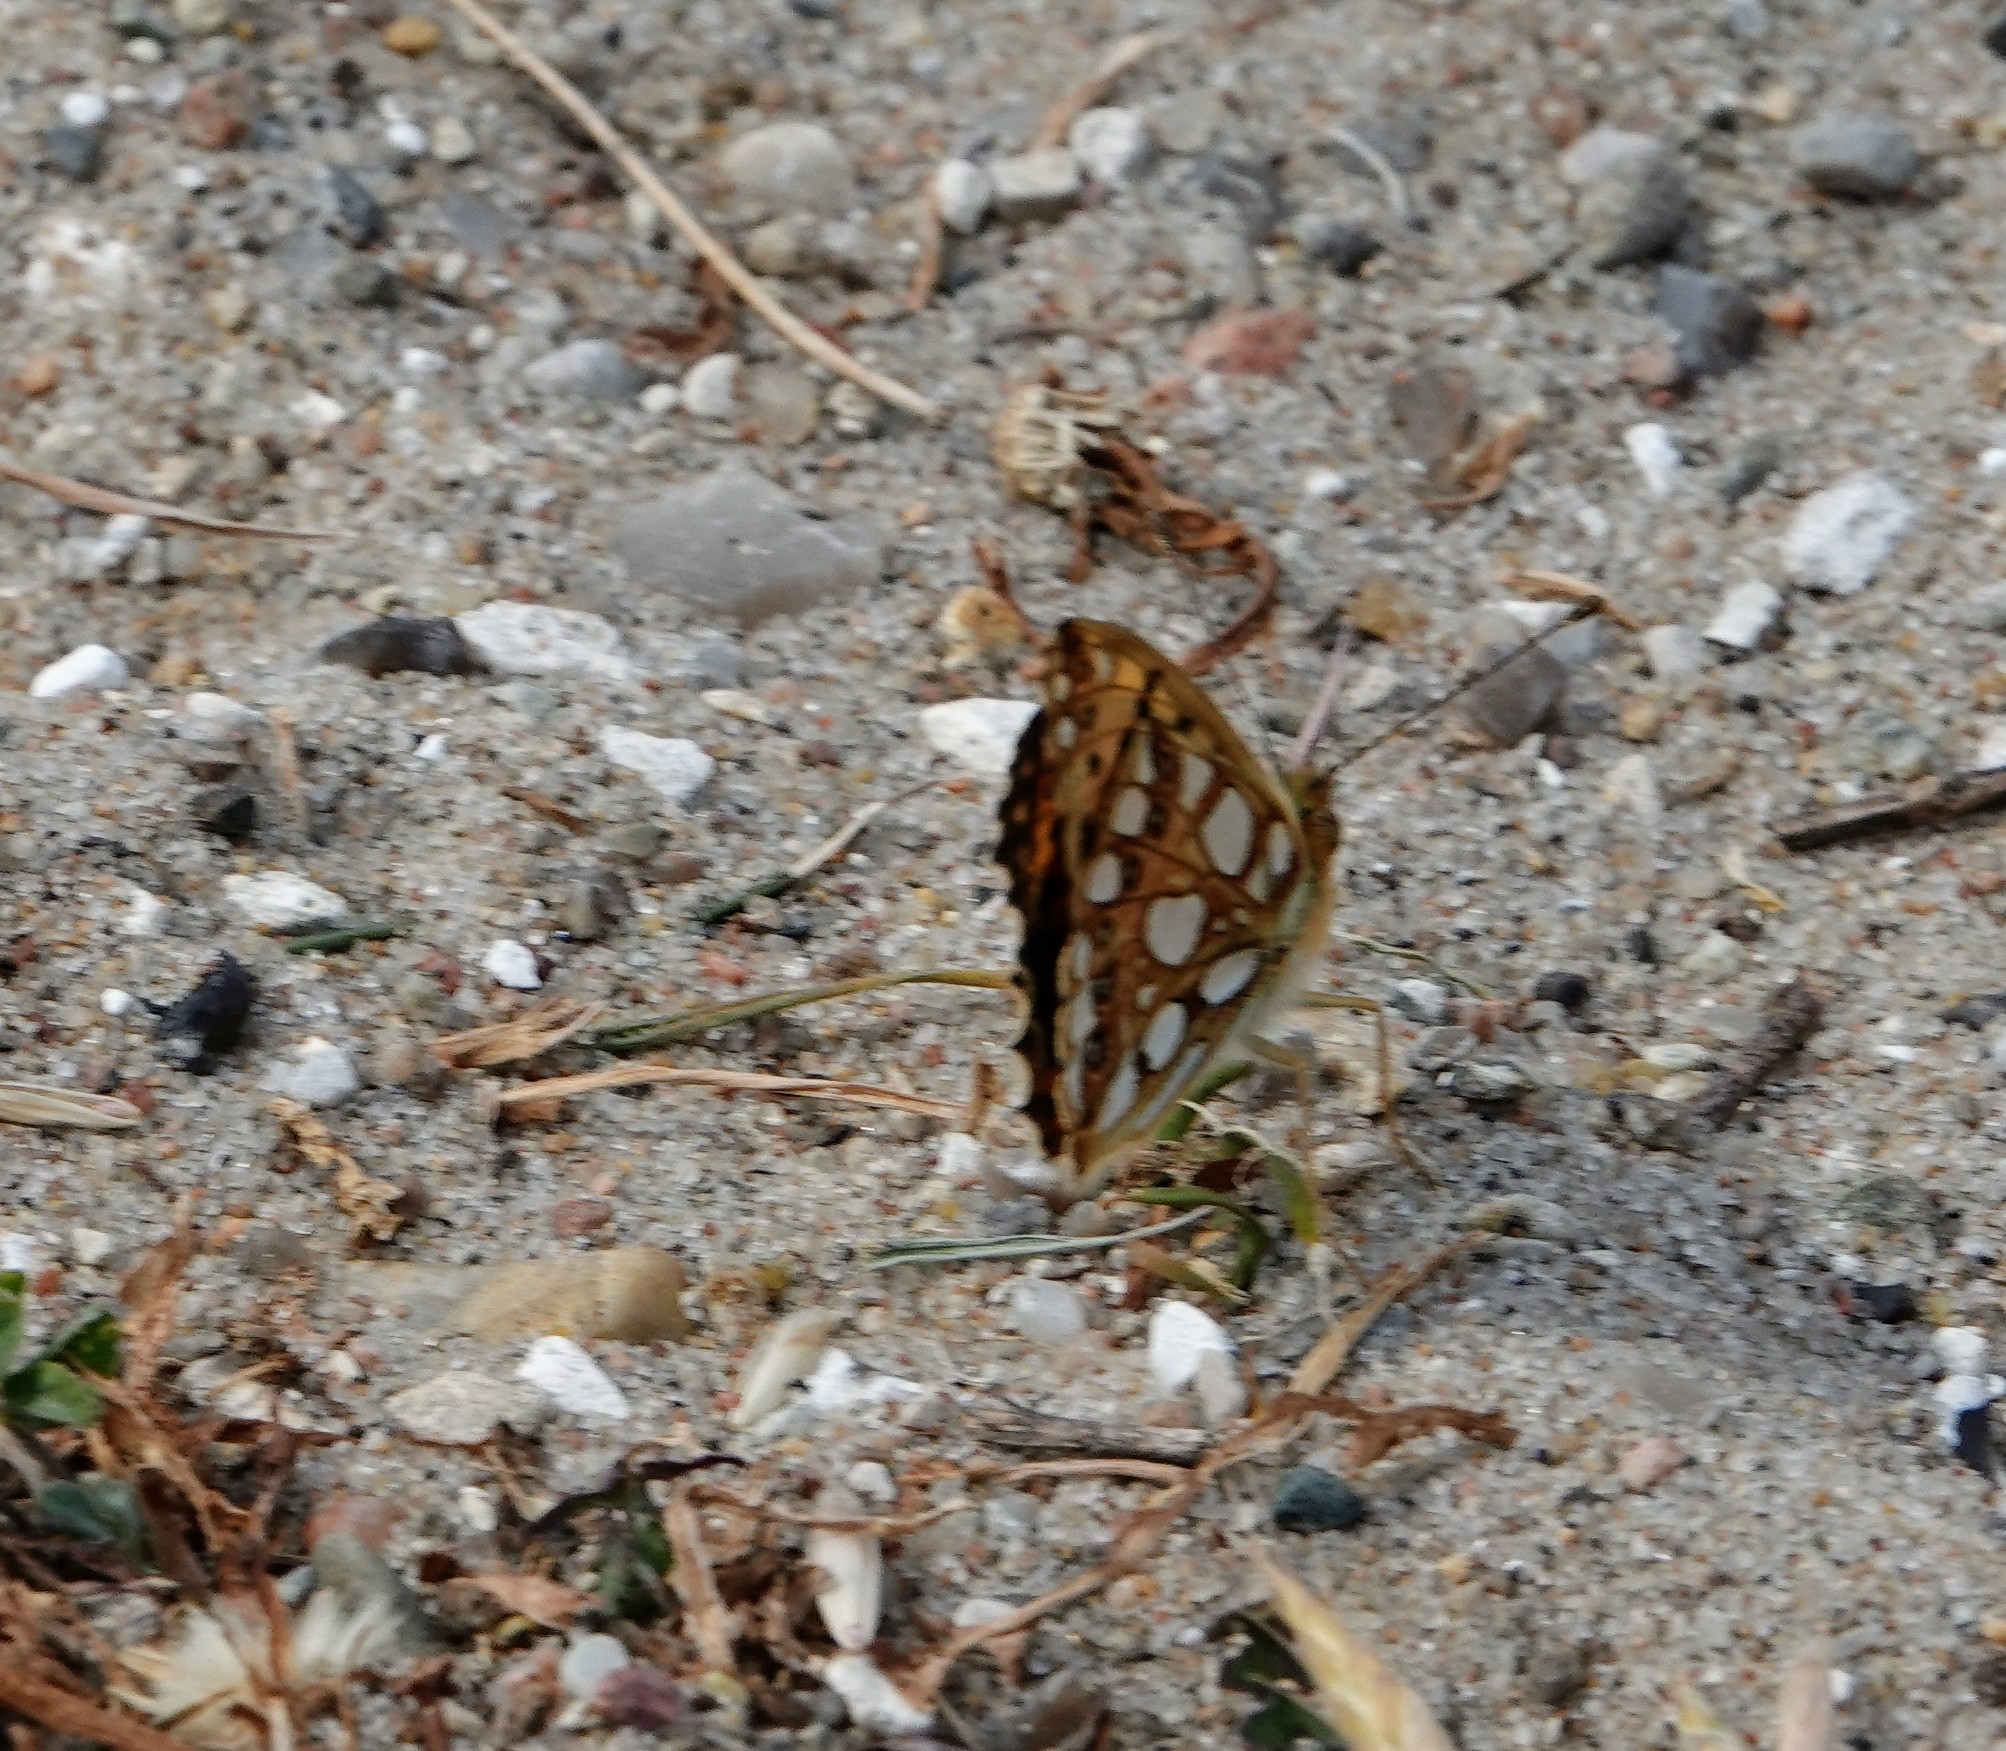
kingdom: Animalia
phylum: Arthropoda
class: Insecta
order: Lepidoptera
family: Nymphalidae
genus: Issoria
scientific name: Issoria lathonia
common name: Queen of spain fritillary
